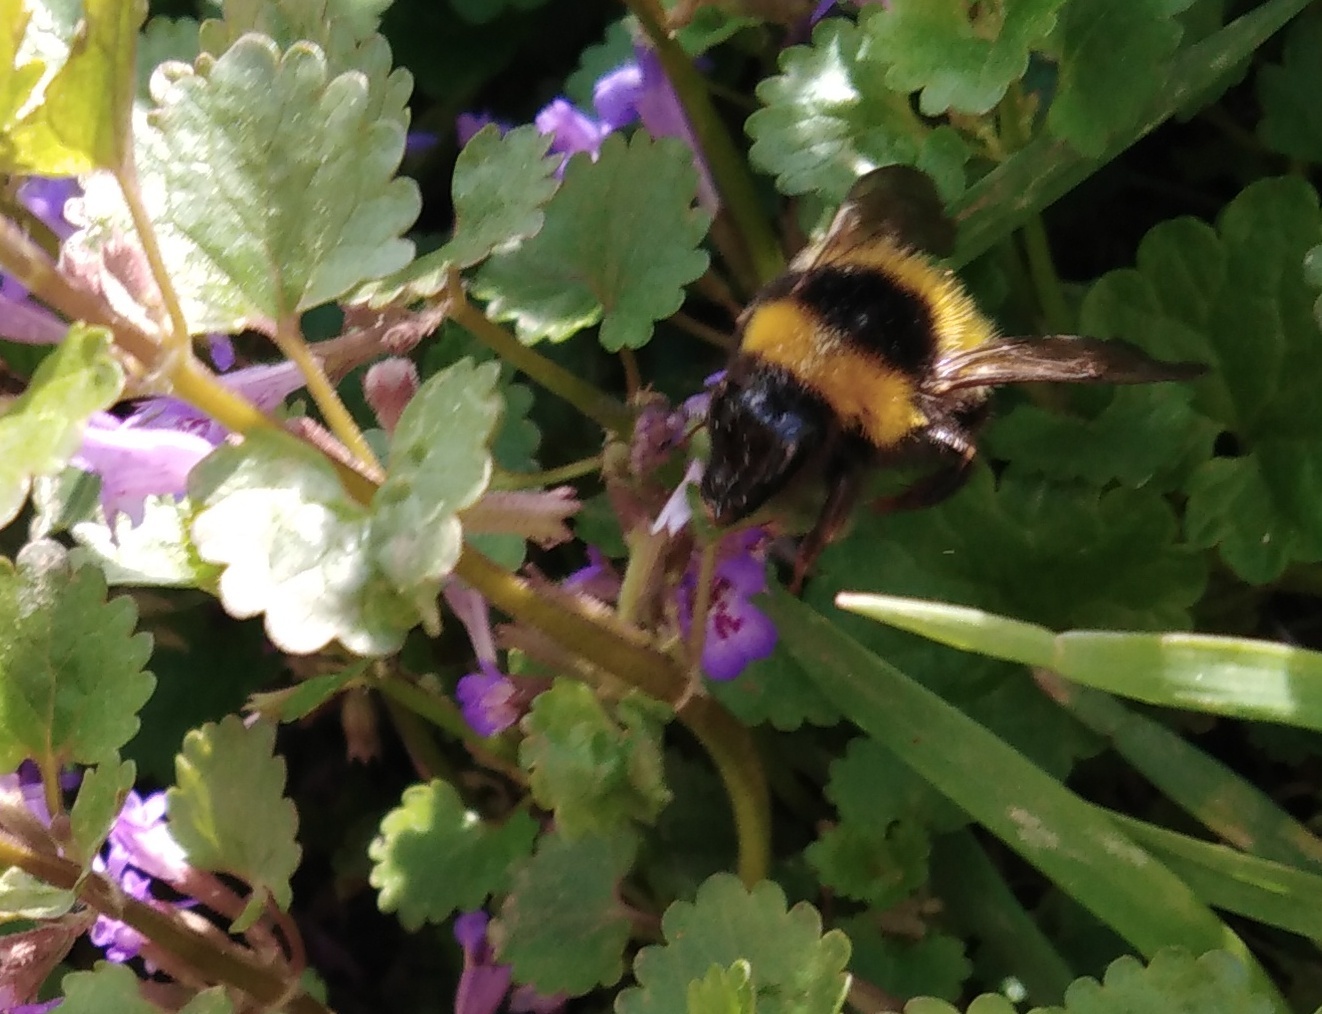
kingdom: Animalia
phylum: Arthropoda
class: Insecta
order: Hymenoptera
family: Apidae
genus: Bombus
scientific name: Bombus hortorum
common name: Garden bumblebee
